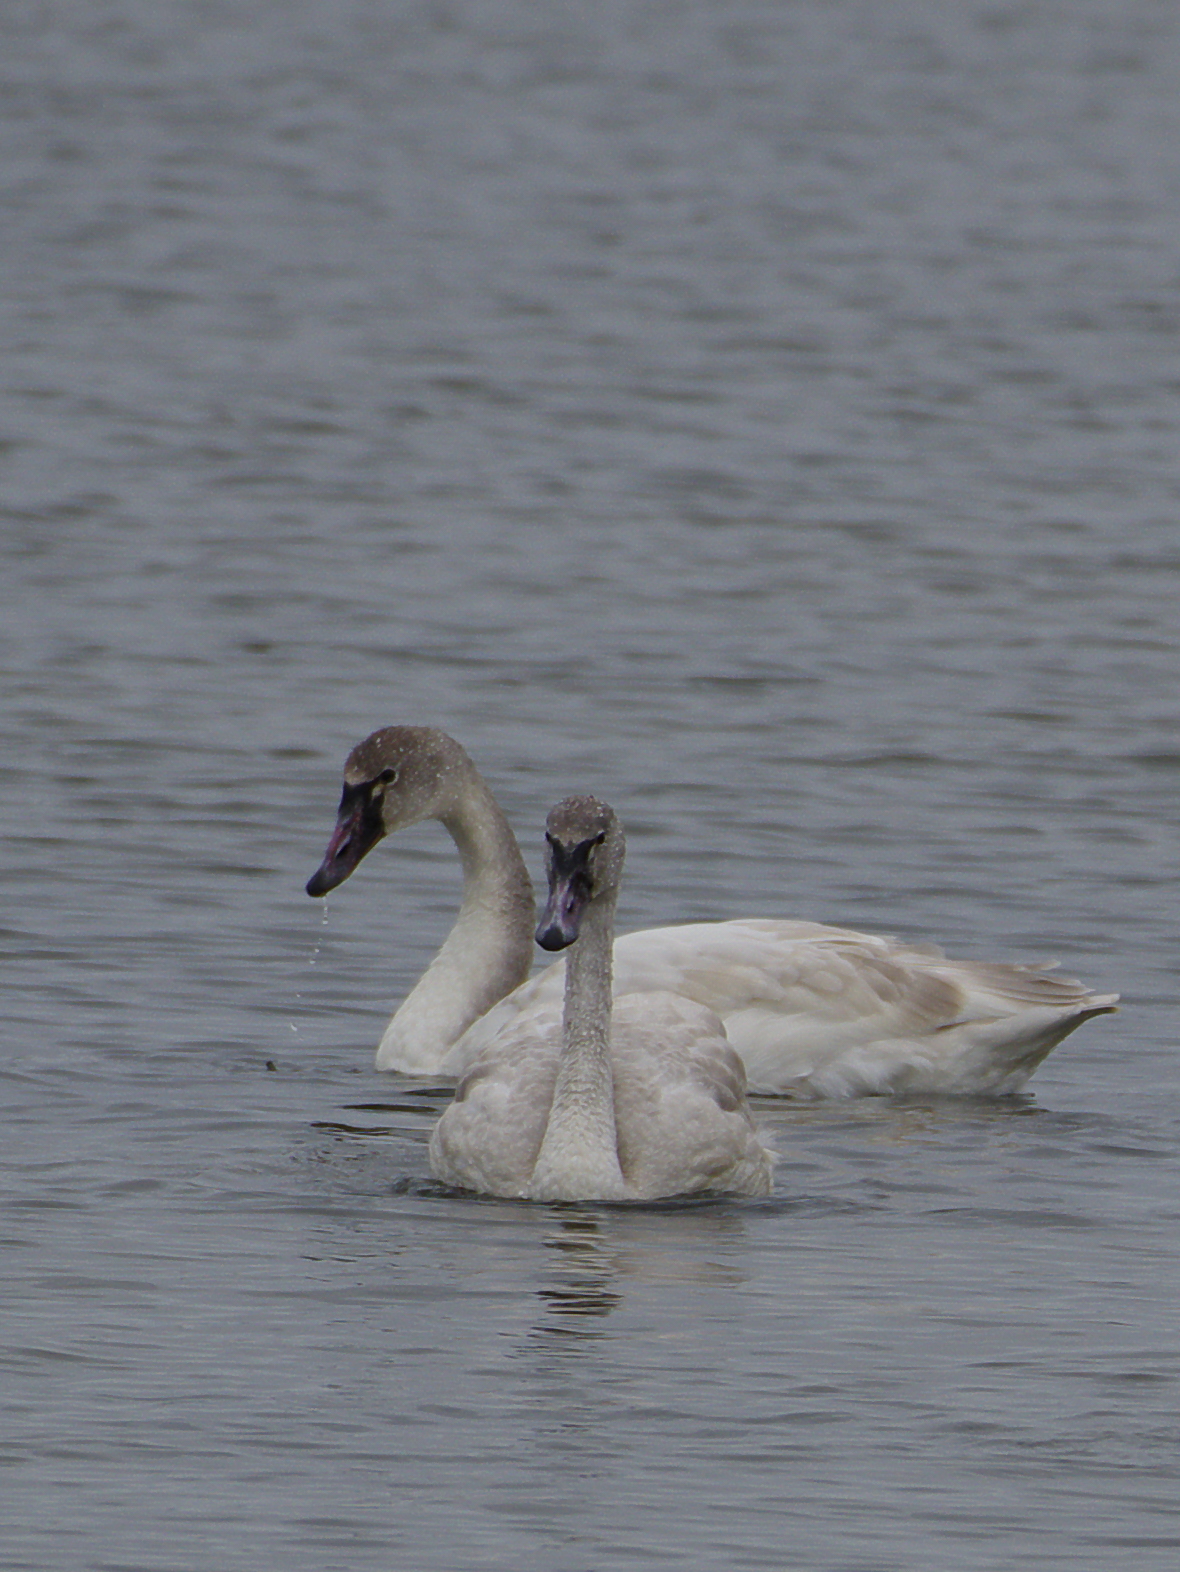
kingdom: Animalia
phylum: Chordata
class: Aves
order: Anseriformes
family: Anatidae
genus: Cygnus
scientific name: Cygnus columbianus
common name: Tundra swan
